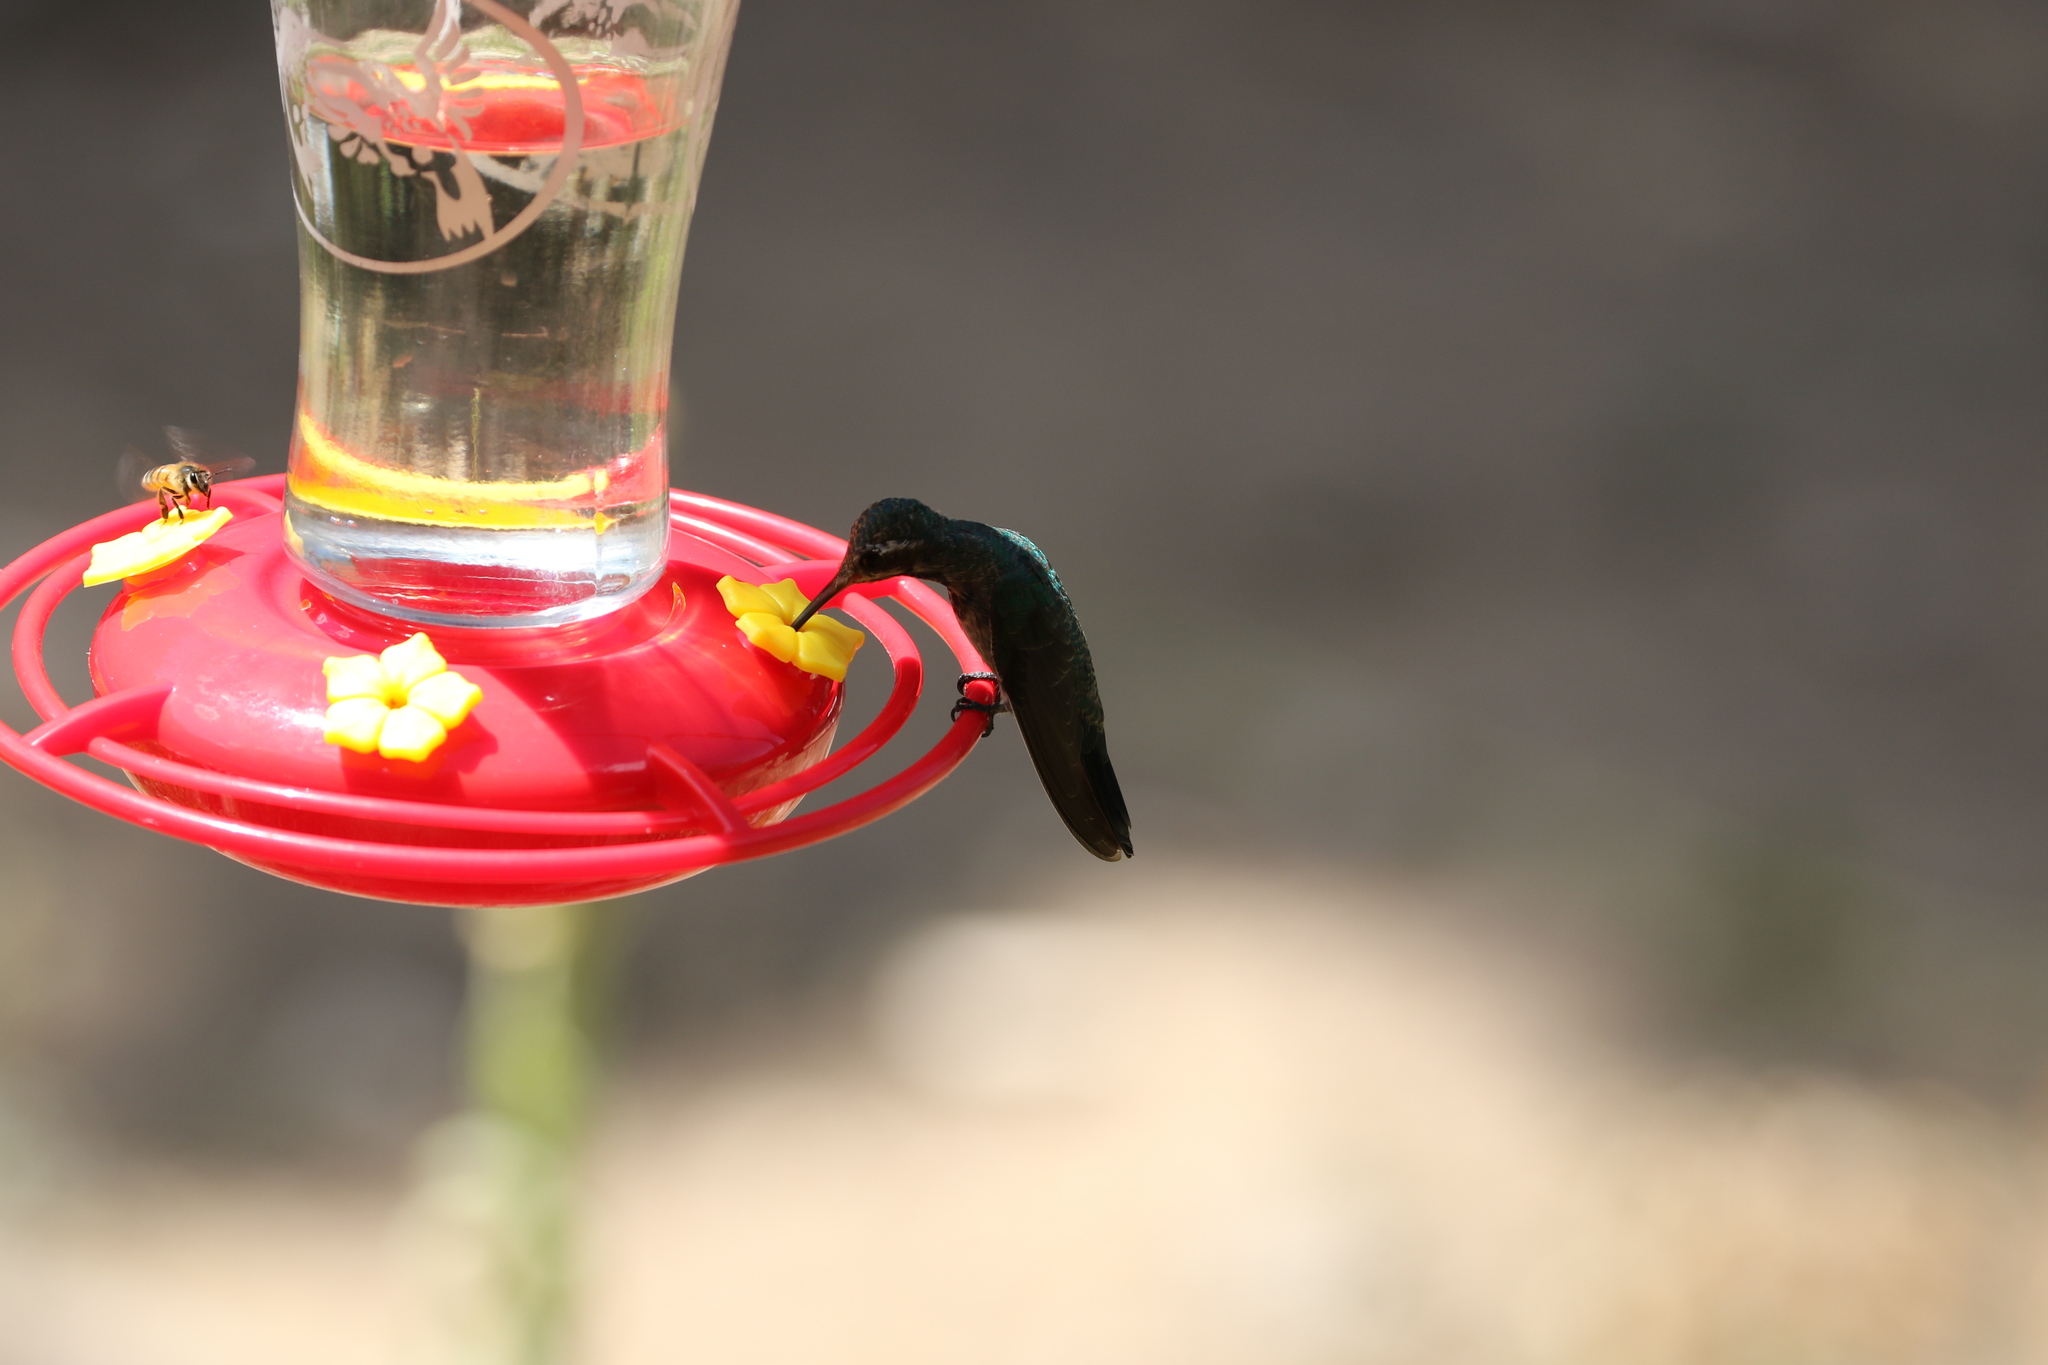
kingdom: Animalia
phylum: Chordata
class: Aves
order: Apodiformes
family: Trochilidae
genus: Cynanthus
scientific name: Cynanthus latirostris
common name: Broad-billed hummingbird
